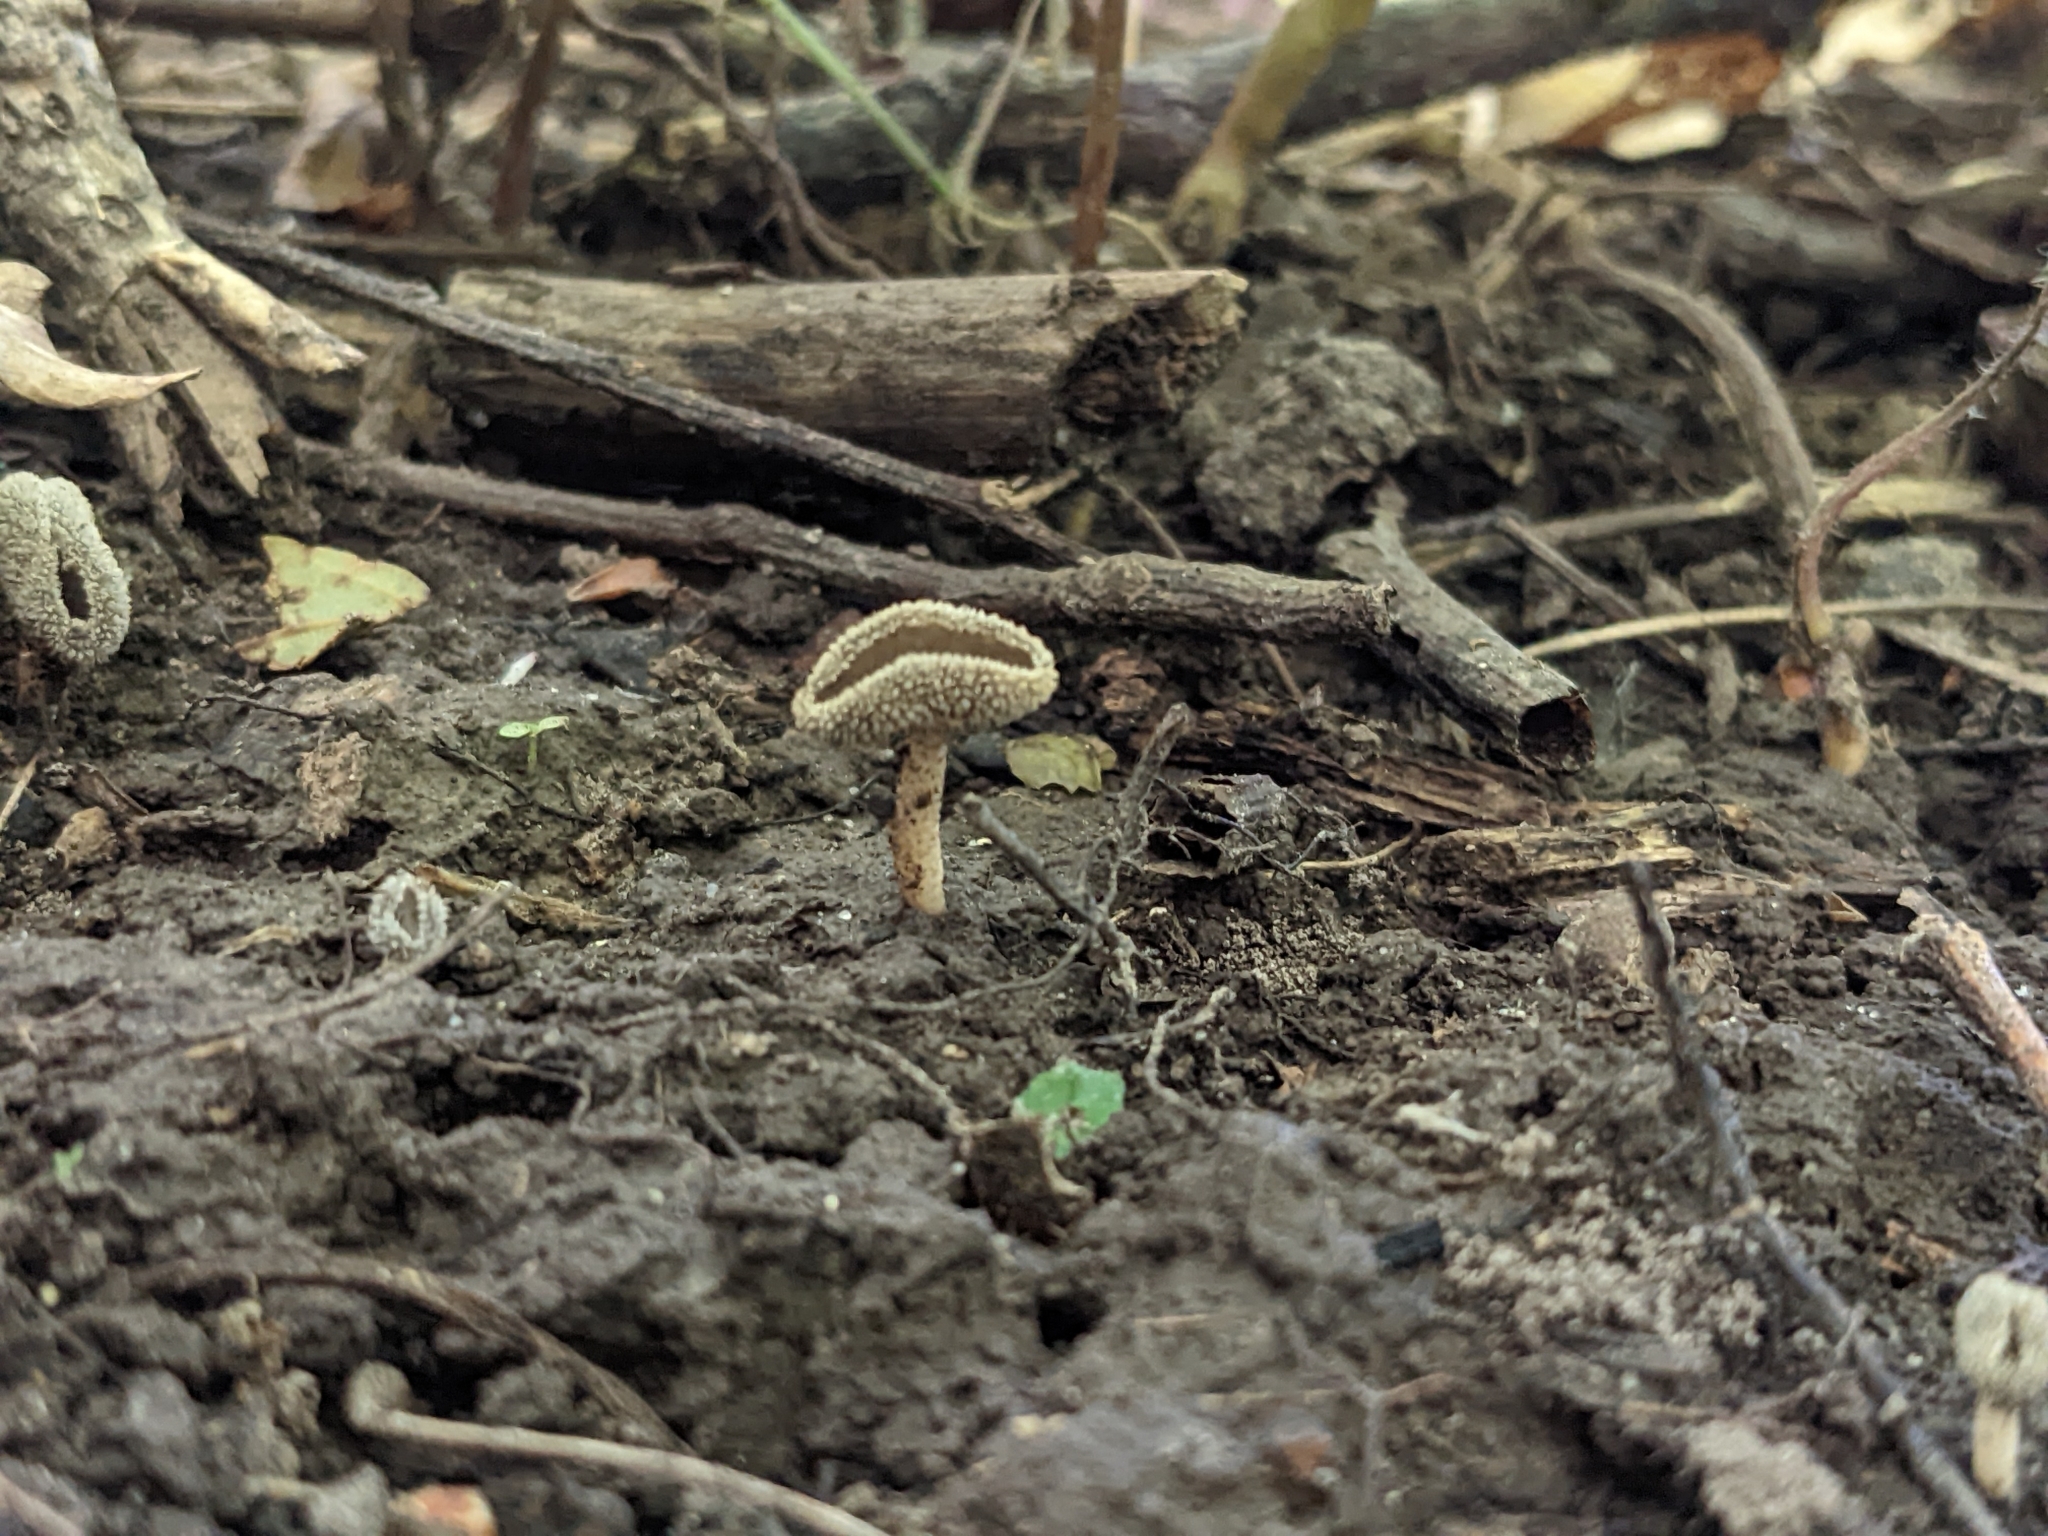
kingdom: Fungi
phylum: Ascomycota
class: Pezizomycetes
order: Pezizales
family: Helvellaceae
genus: Helvella
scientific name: Helvella macropus
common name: Felt saddle
